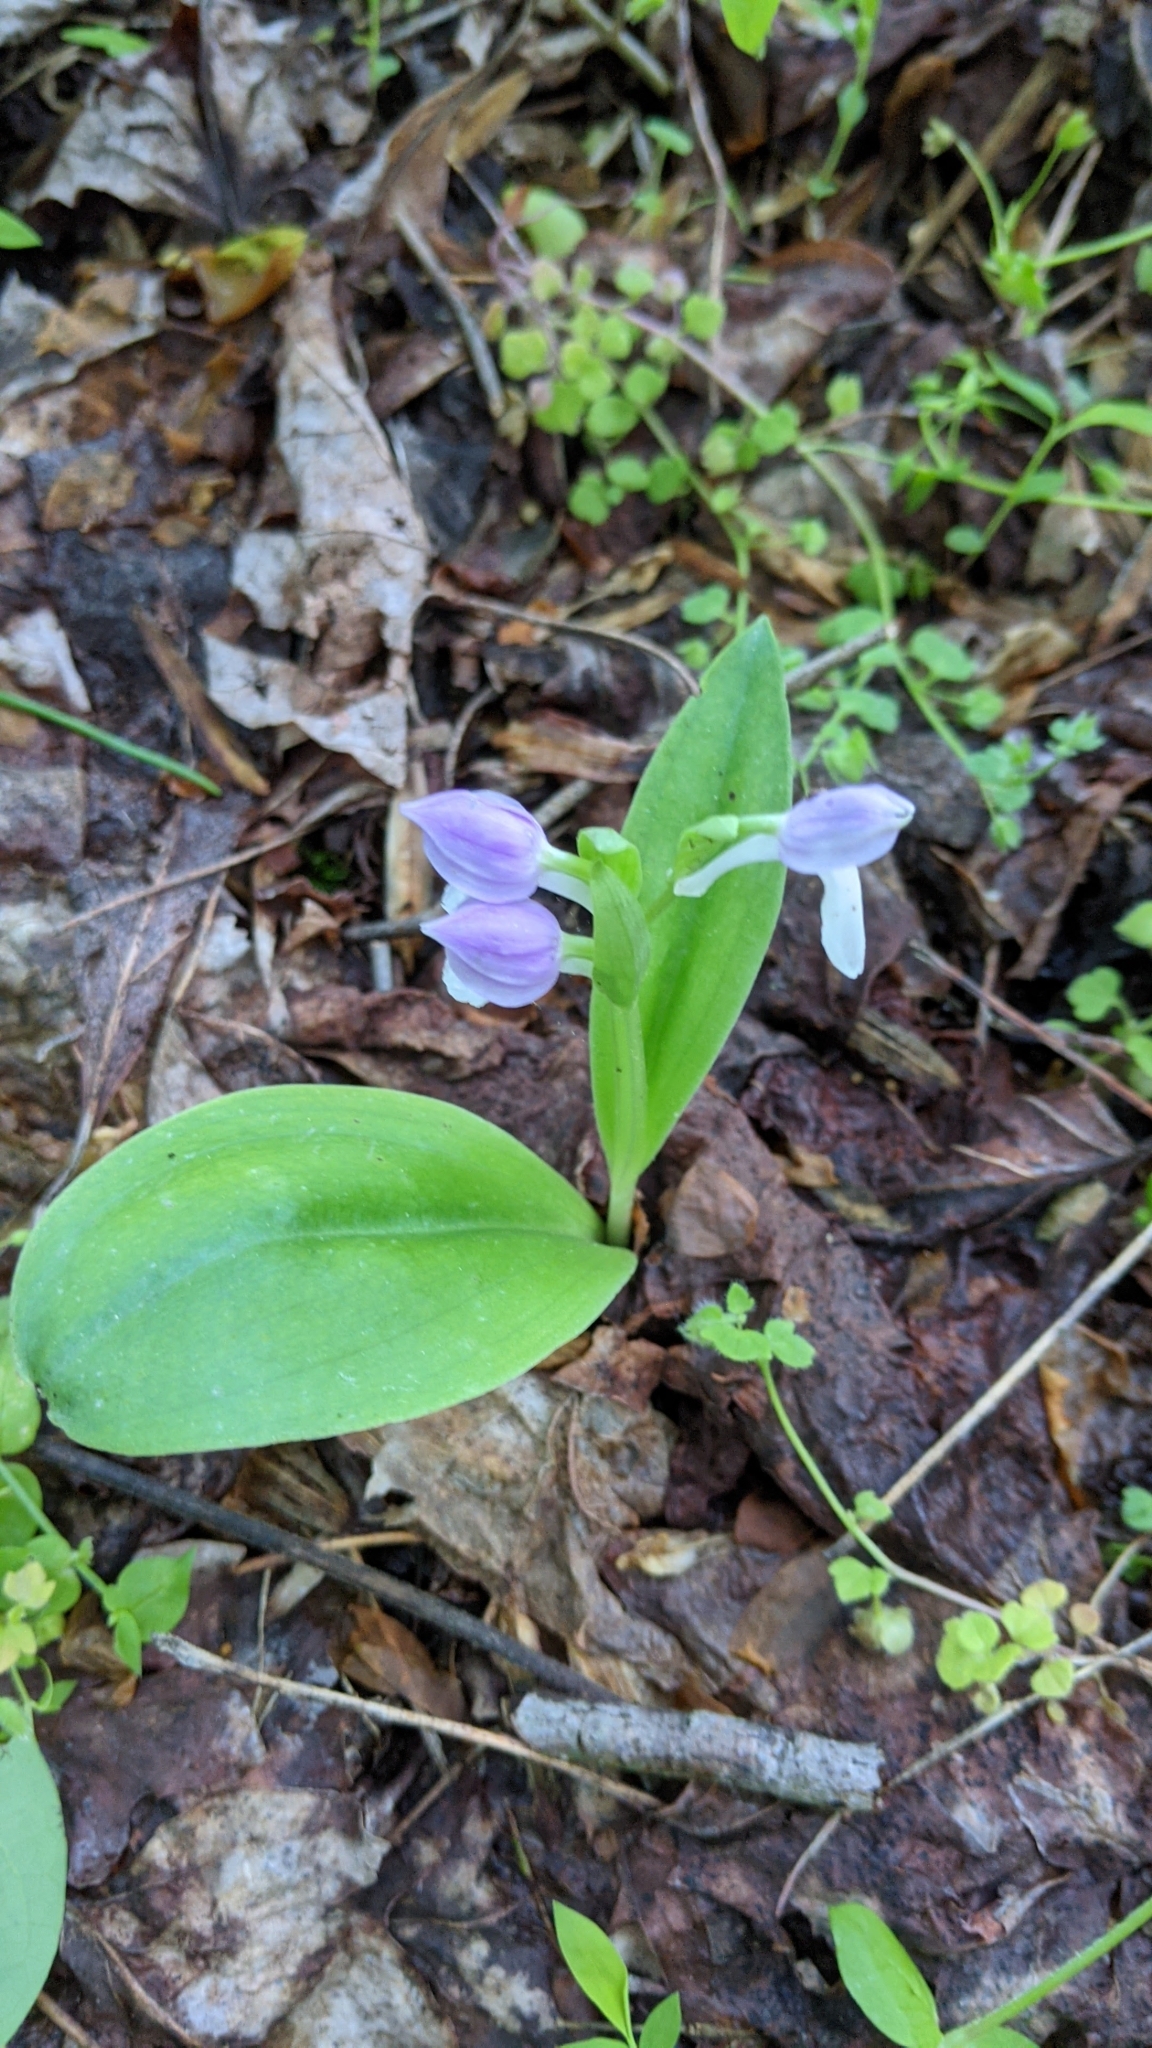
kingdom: Plantae
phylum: Tracheophyta
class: Liliopsida
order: Asparagales
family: Orchidaceae
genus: Galearis
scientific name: Galearis spectabilis
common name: Purple-hooded orchis
